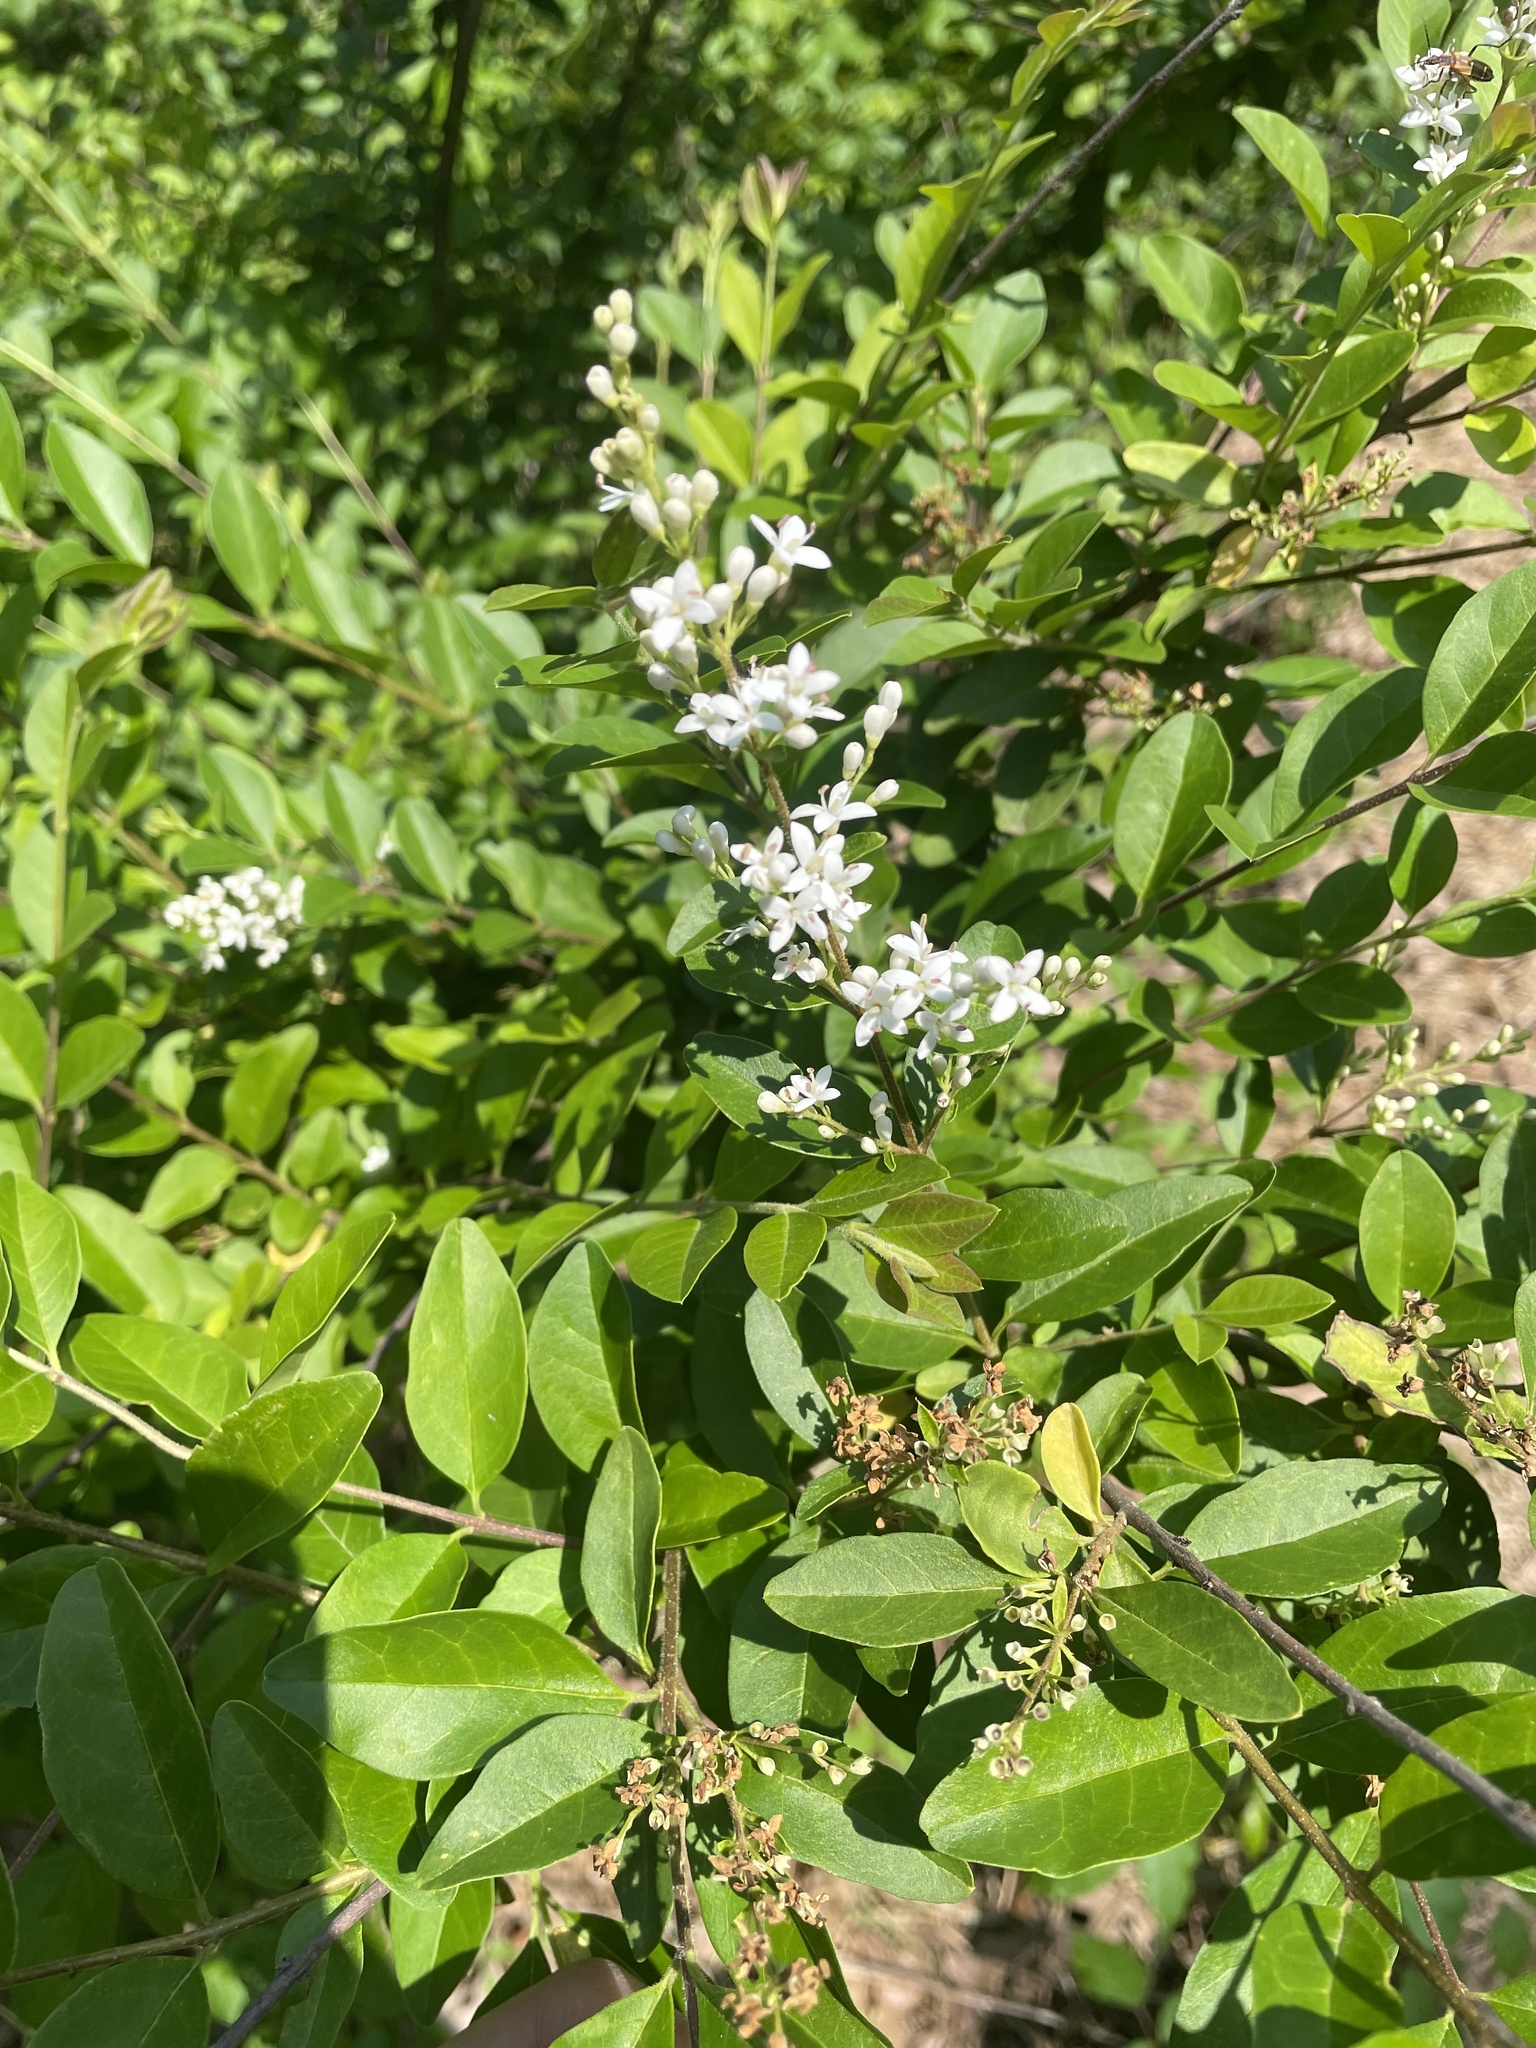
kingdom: Plantae
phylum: Tracheophyta
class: Magnoliopsida
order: Lamiales
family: Oleaceae
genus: Ligustrum
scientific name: Ligustrum sinense
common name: Chinese privet
